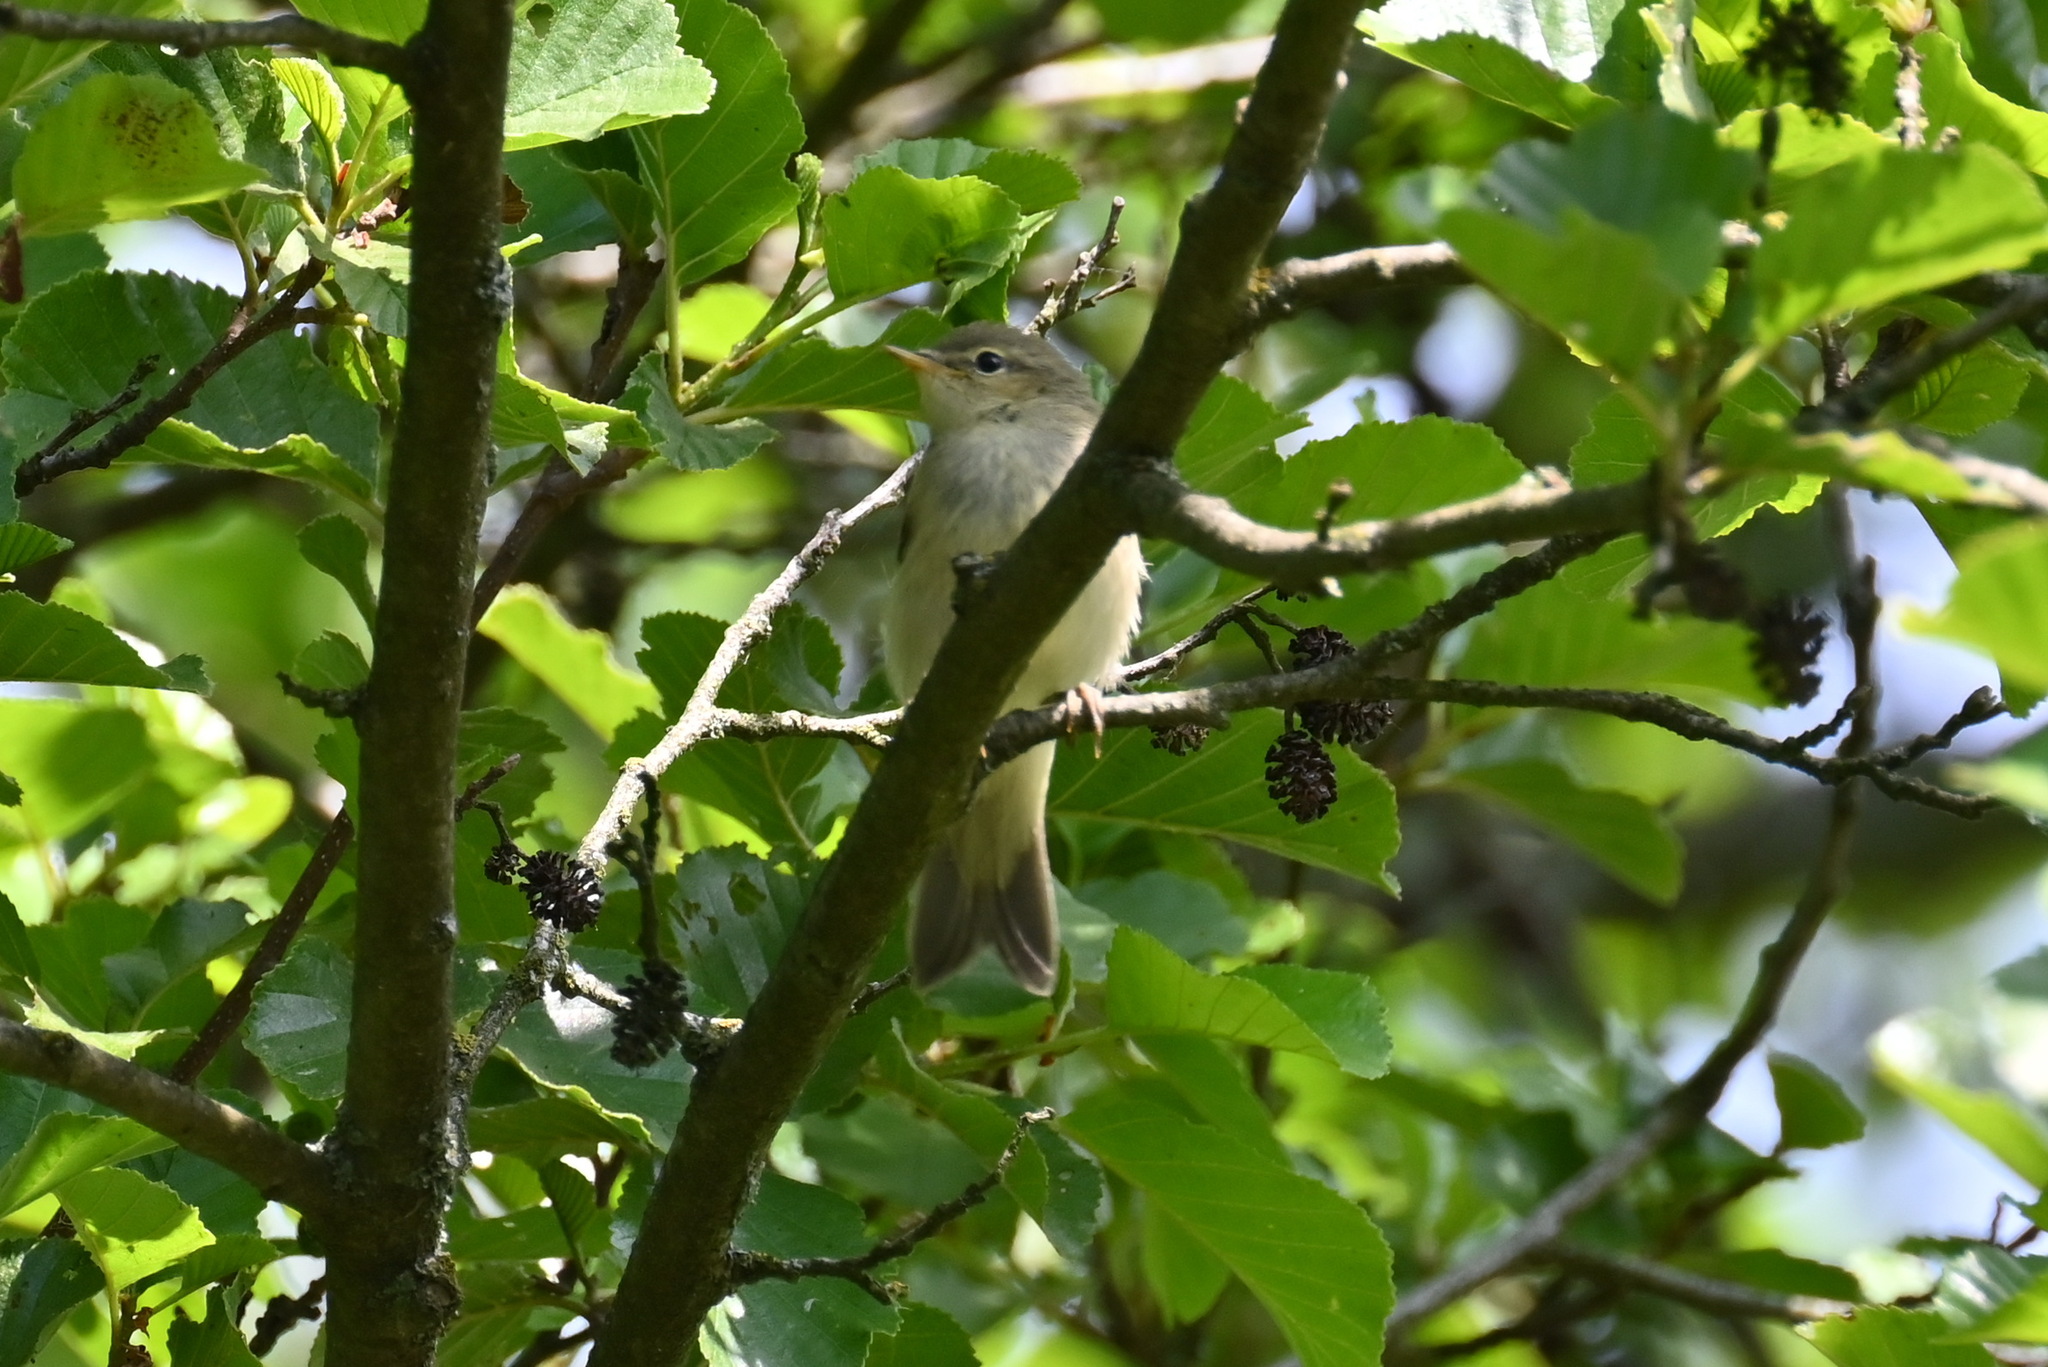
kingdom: Animalia
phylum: Chordata
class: Aves
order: Passeriformes
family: Phylloscopidae
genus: Phylloscopus
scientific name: Phylloscopus trochilus
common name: Willow warbler
